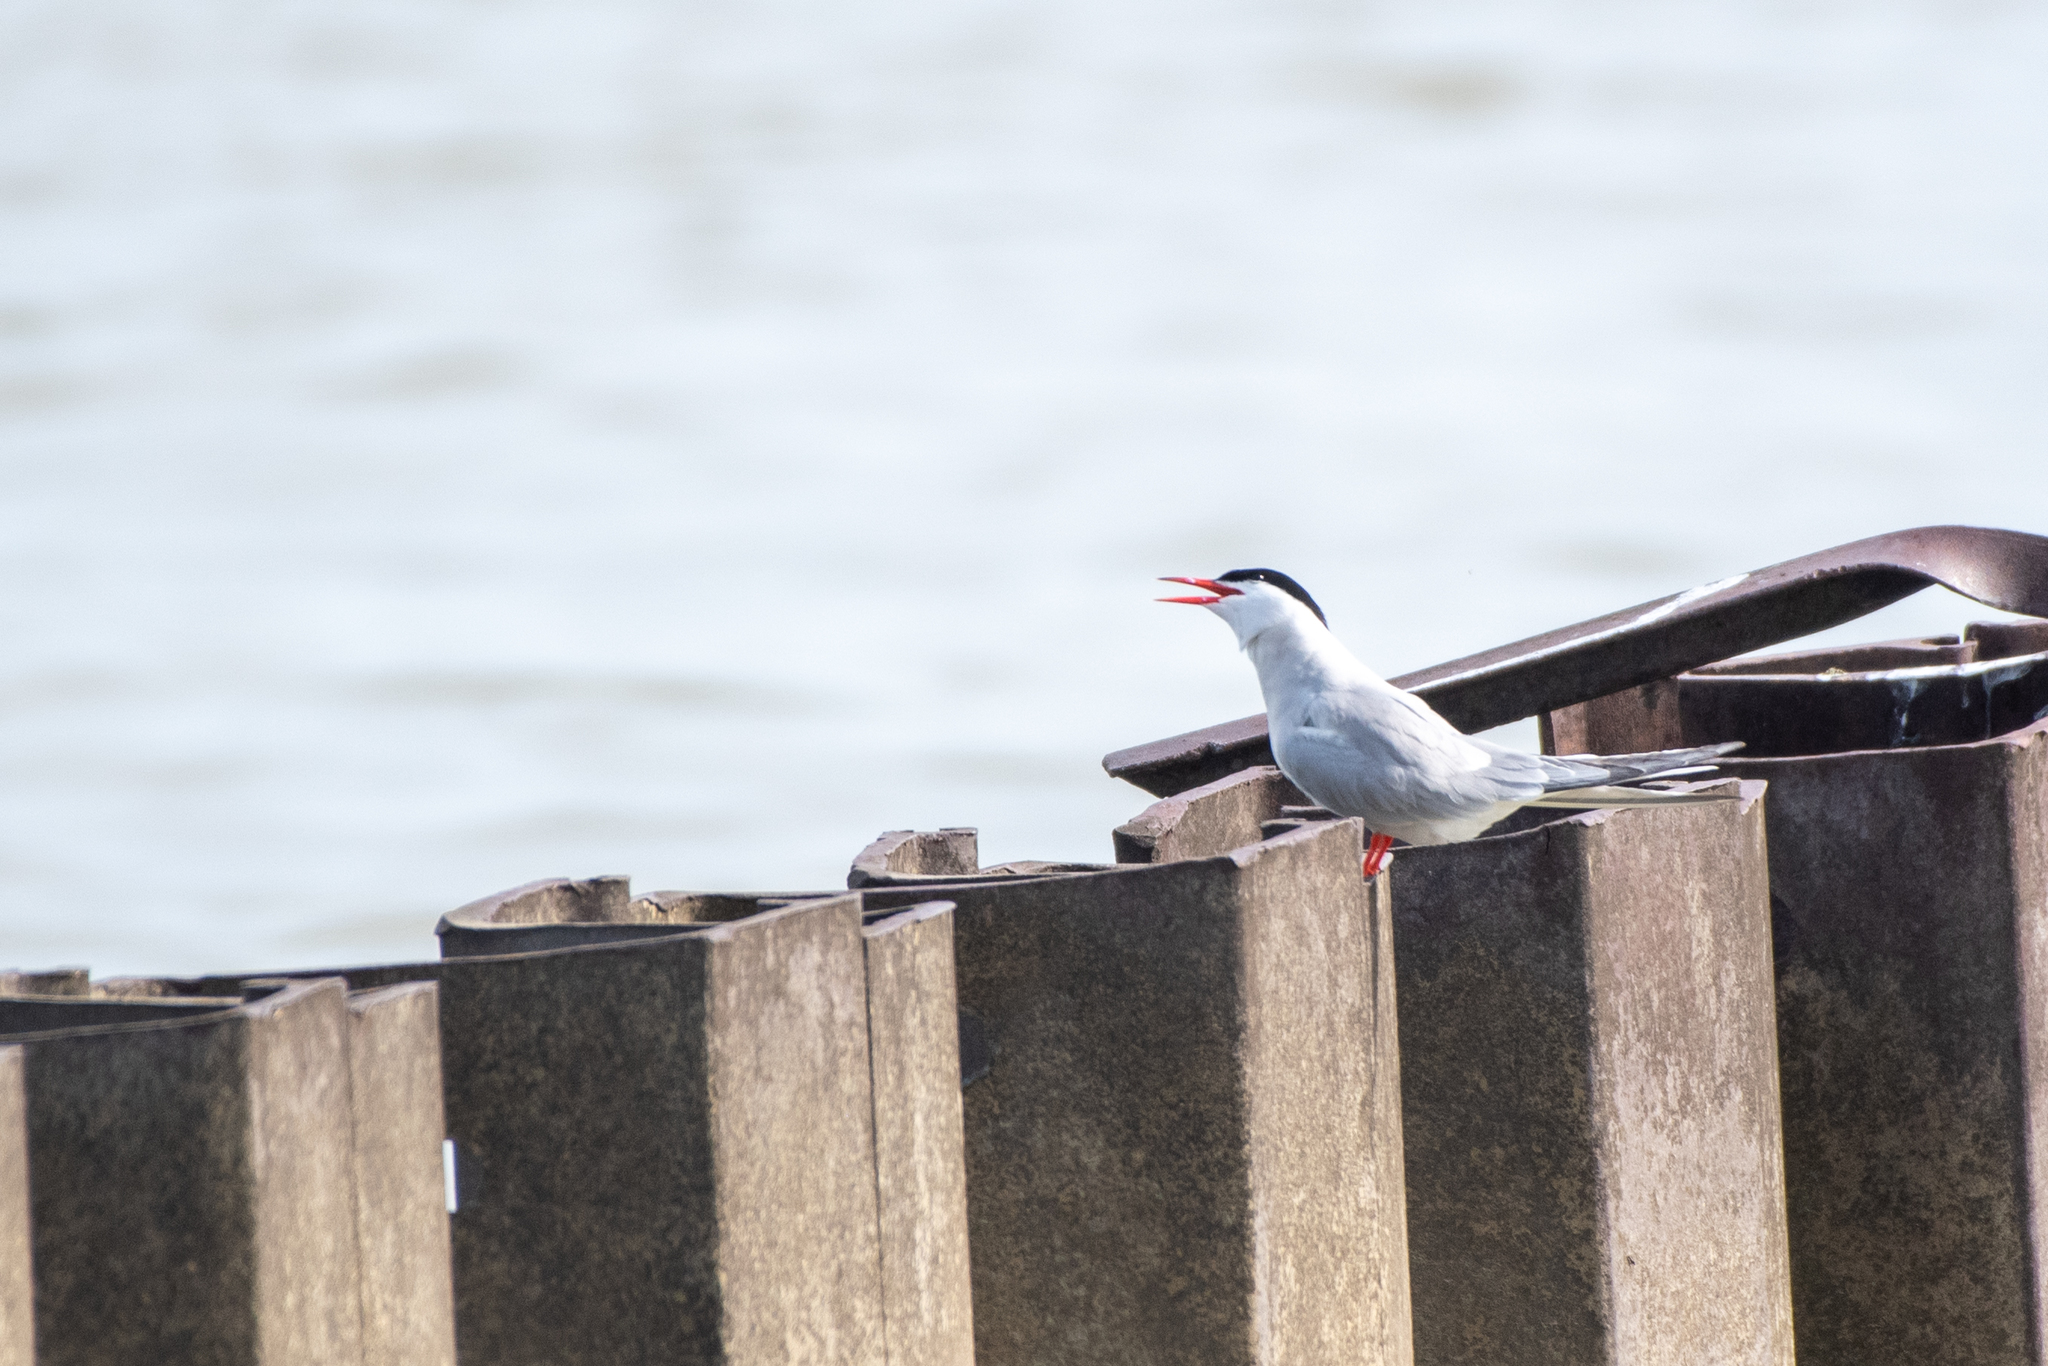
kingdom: Animalia
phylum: Chordata
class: Aves
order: Charadriiformes
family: Laridae
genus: Sterna
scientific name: Sterna hirundo
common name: Common tern
